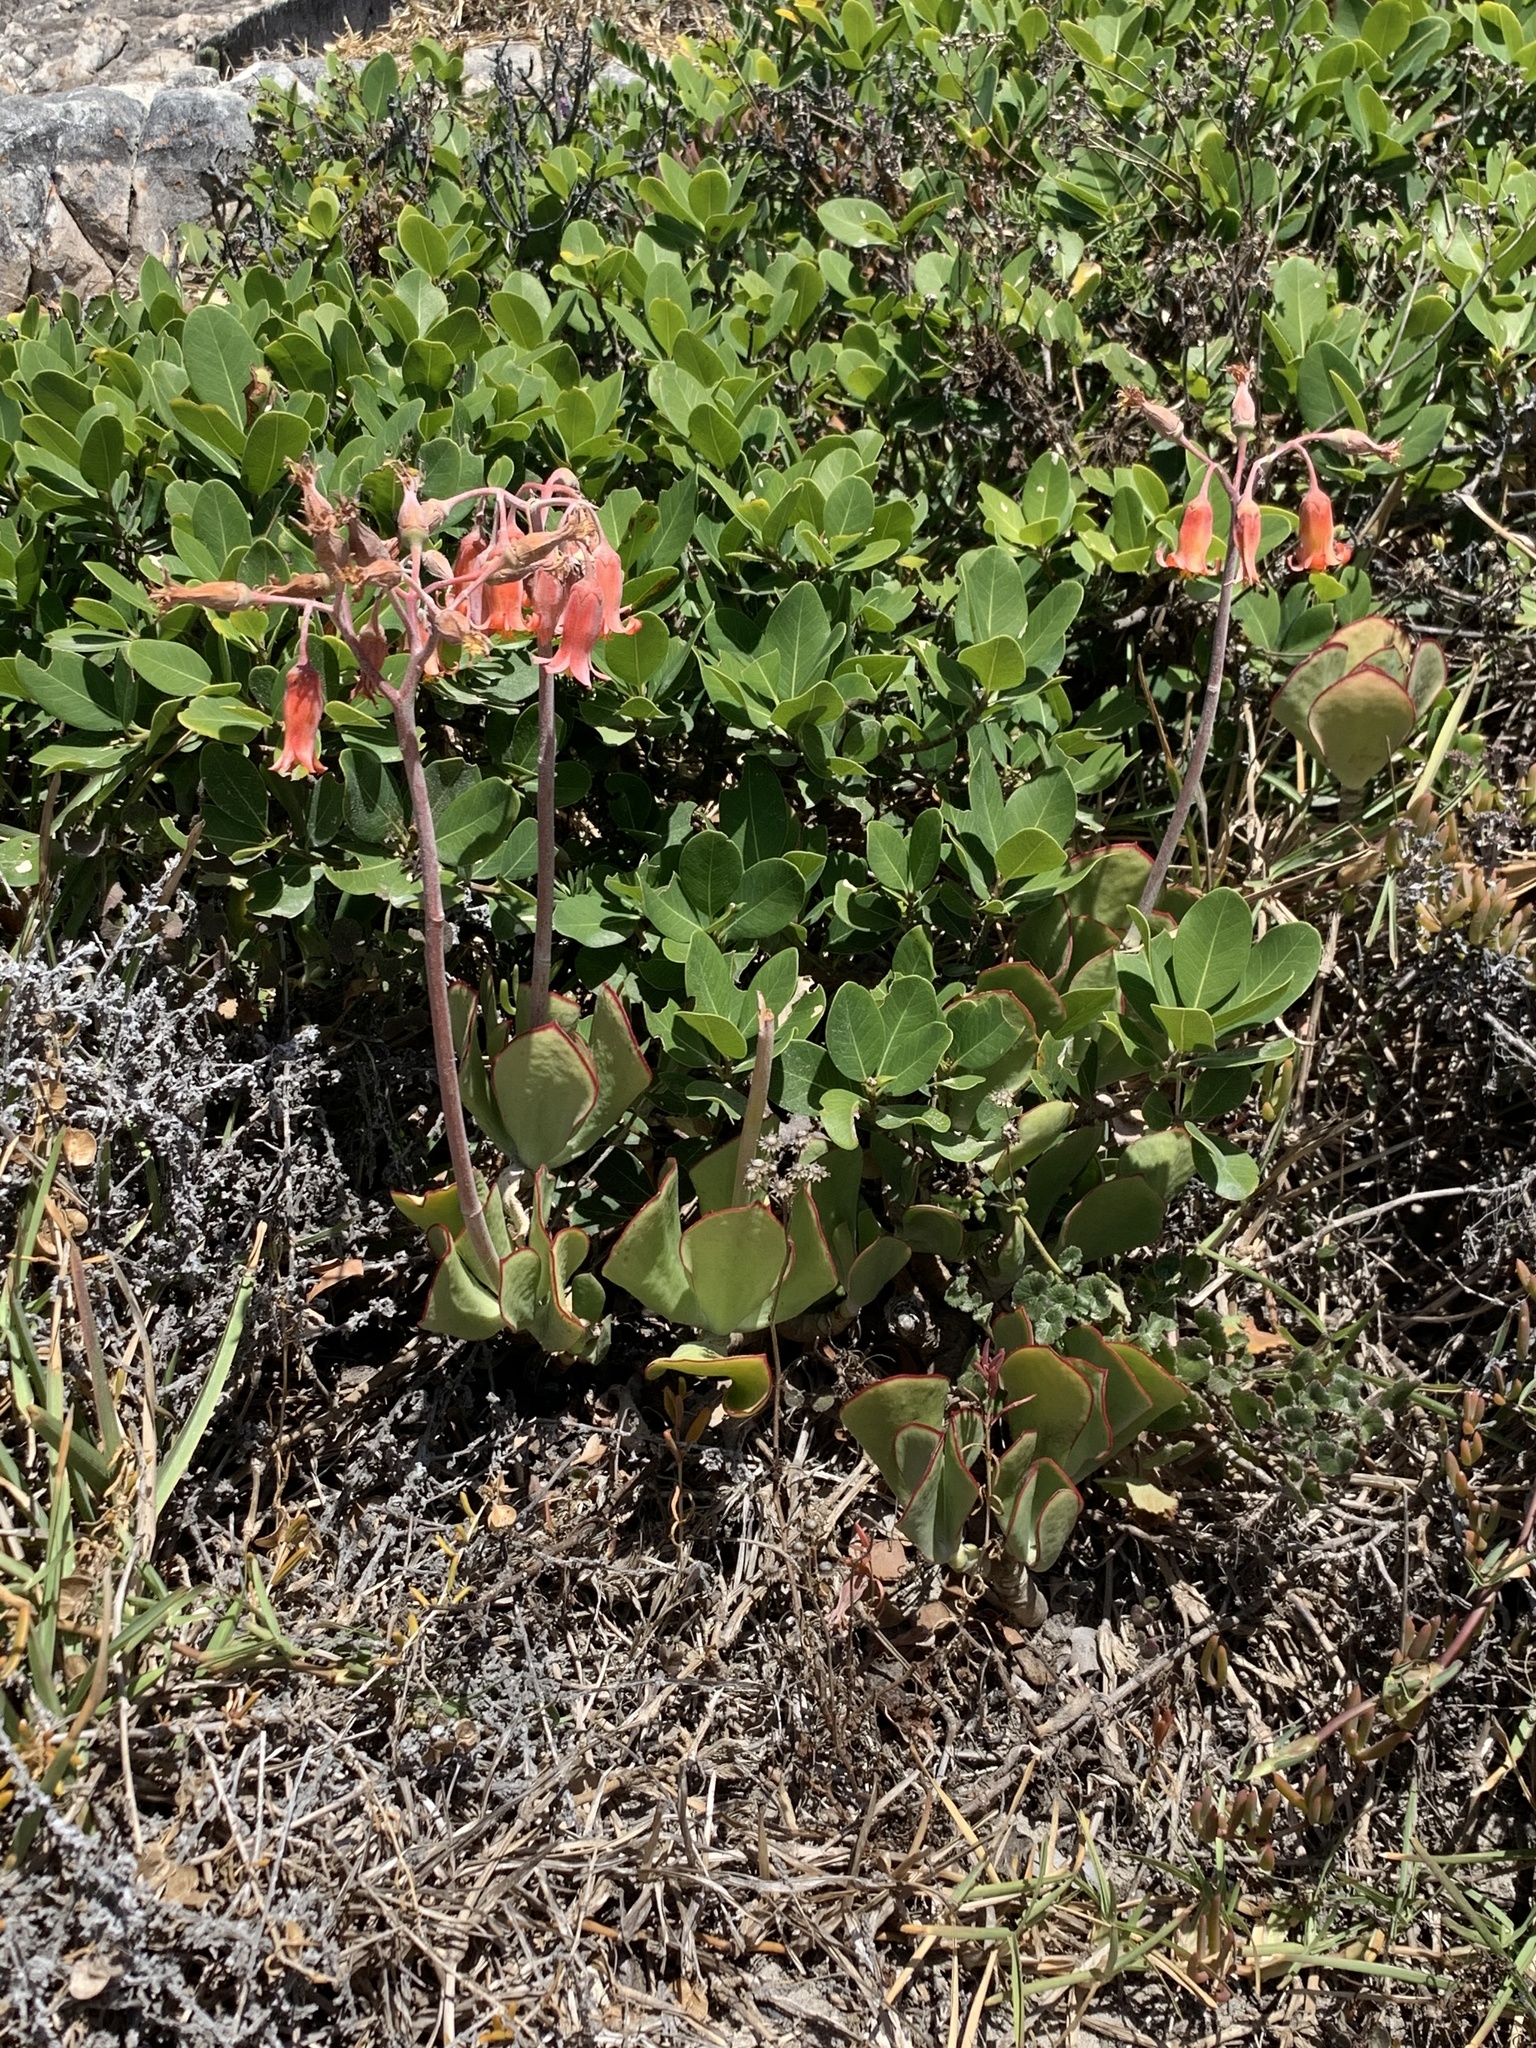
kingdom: Plantae
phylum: Tracheophyta
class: Magnoliopsida
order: Saxifragales
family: Crassulaceae
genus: Cotyledon
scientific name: Cotyledon orbiculata
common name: Pig's ear
